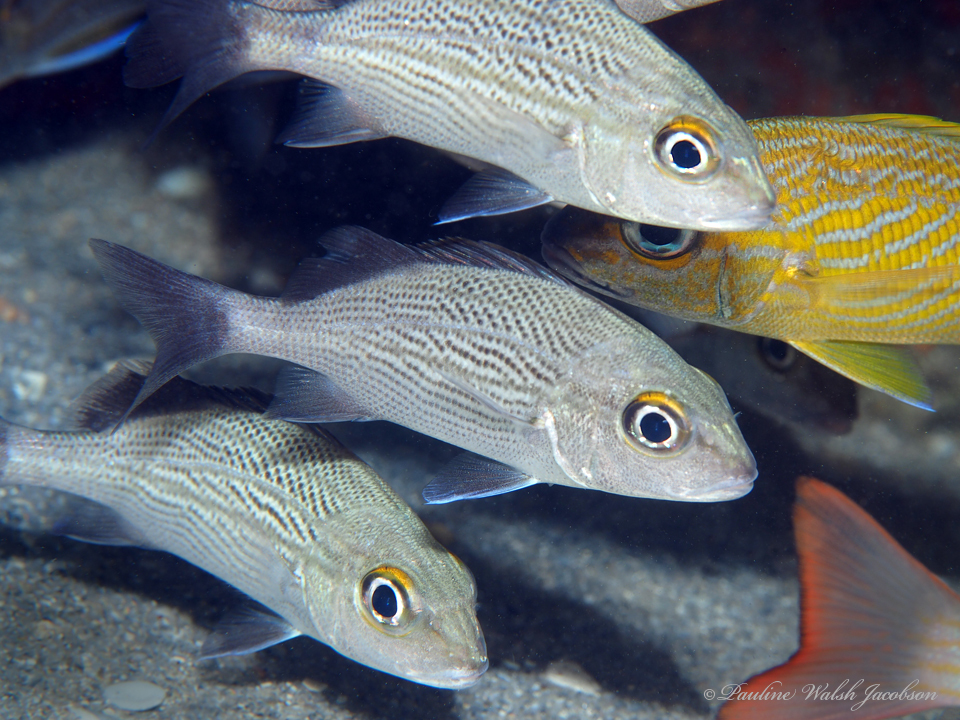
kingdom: Animalia
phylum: Chordata
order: Perciformes
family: Haemulidae
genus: Haemulon
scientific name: Haemulon parra
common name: Sailor's choice
